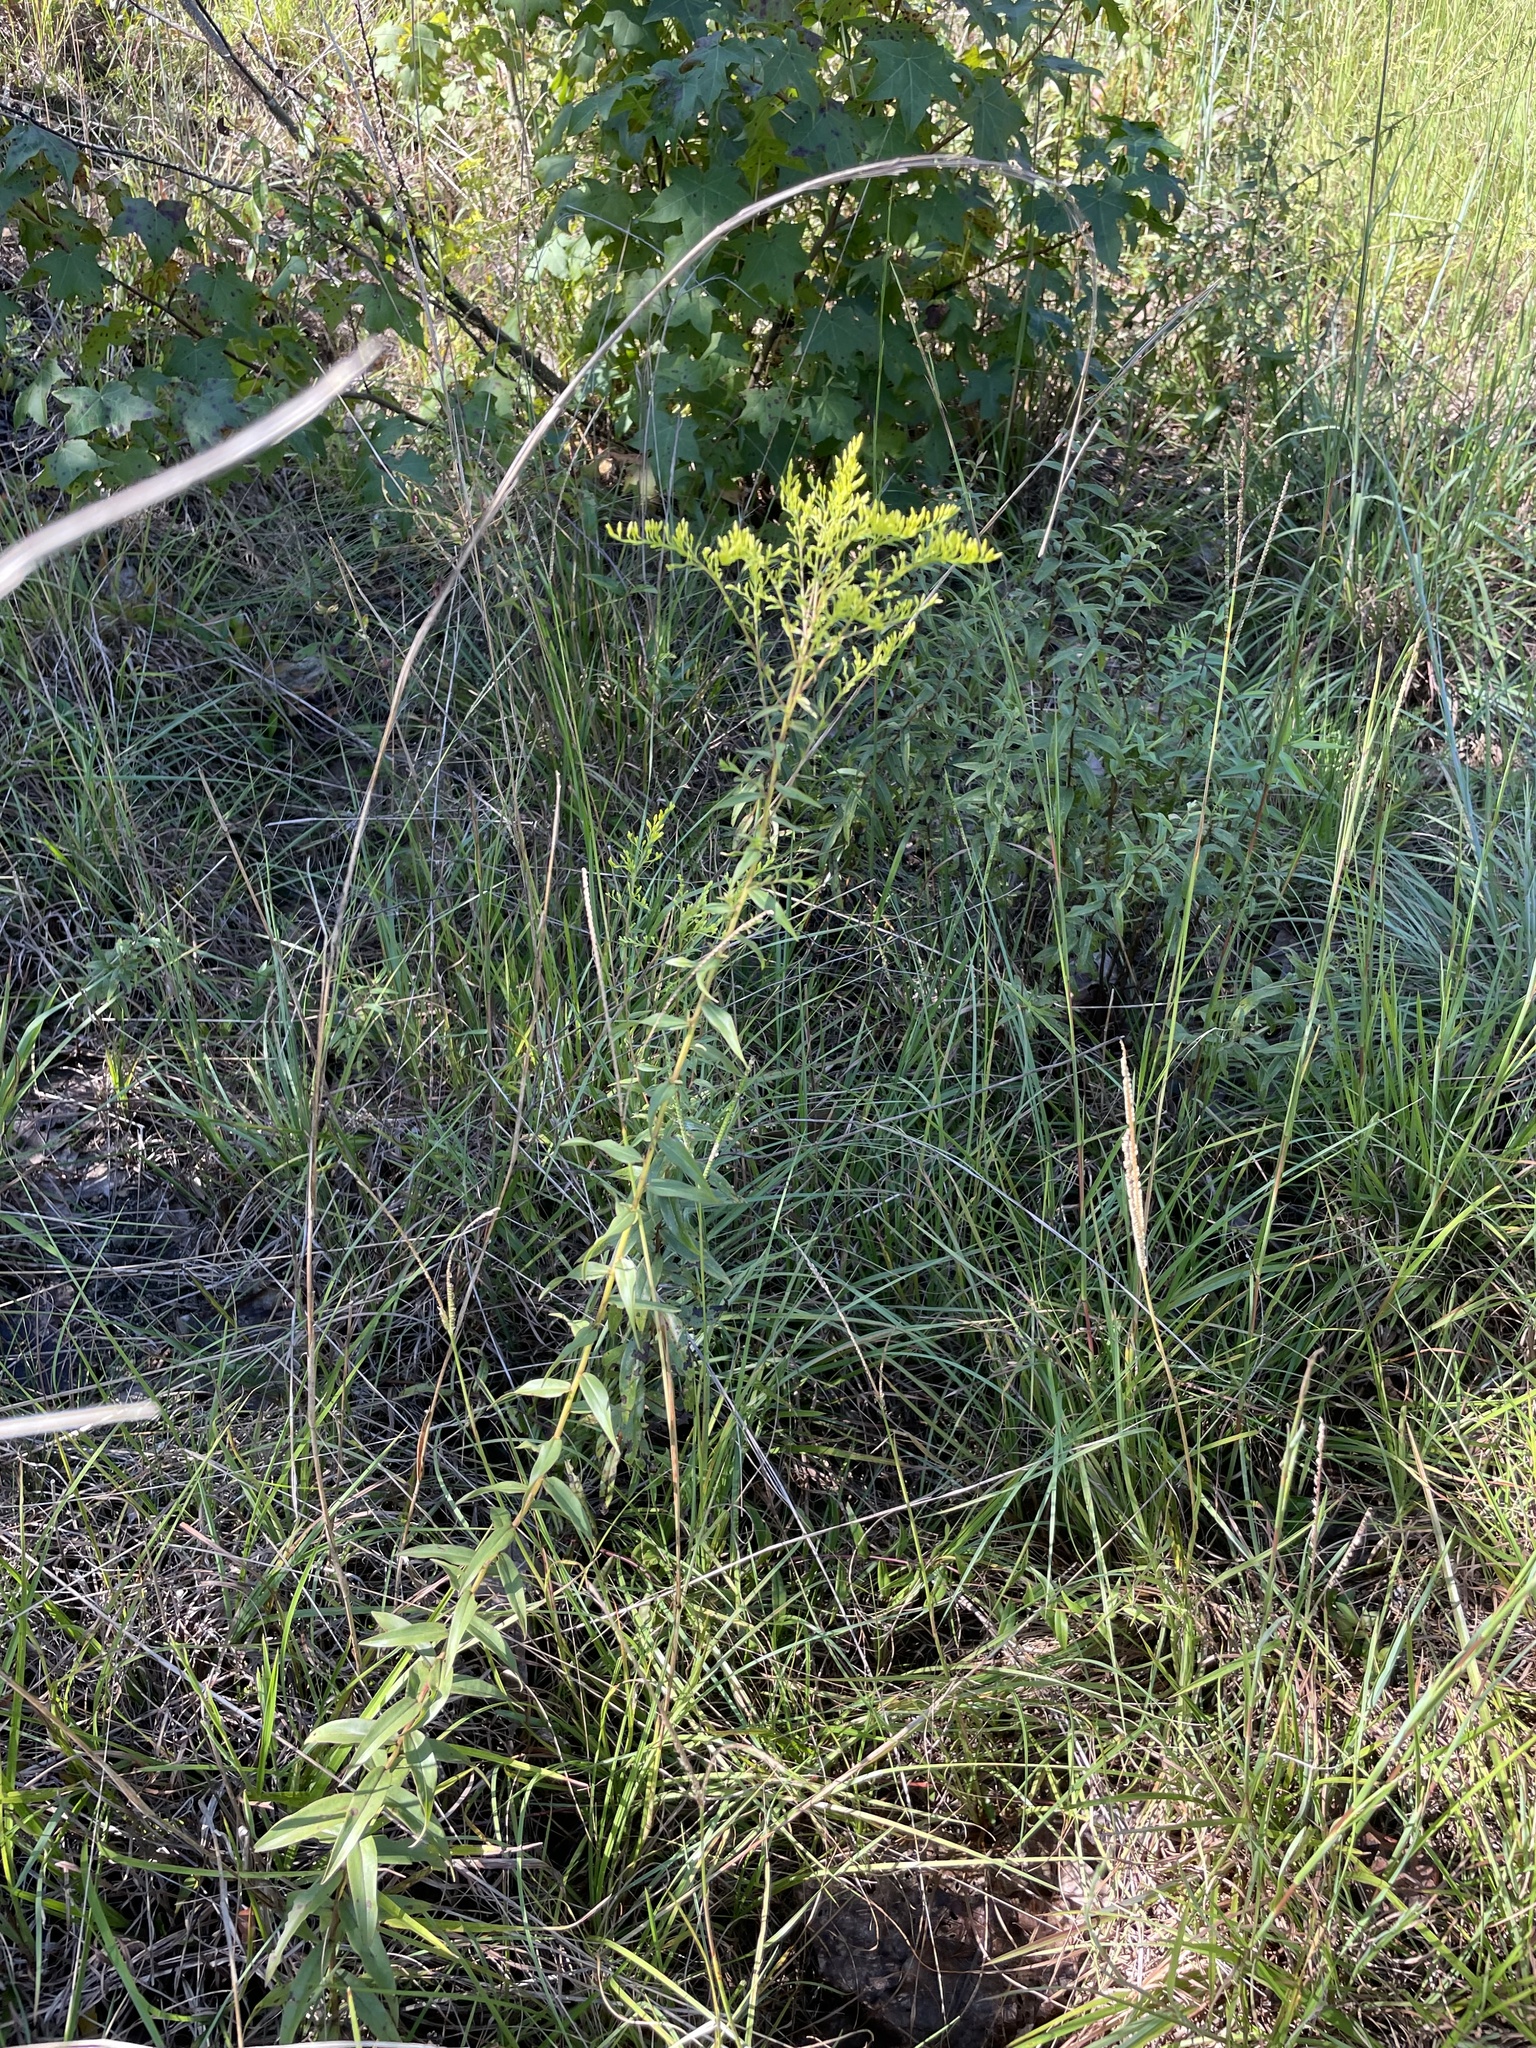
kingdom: Plantae
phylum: Tracheophyta
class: Magnoliopsida
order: Asterales
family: Asteraceae
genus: Solidago
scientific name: Solidago odora
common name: Anise-scented goldenrod
